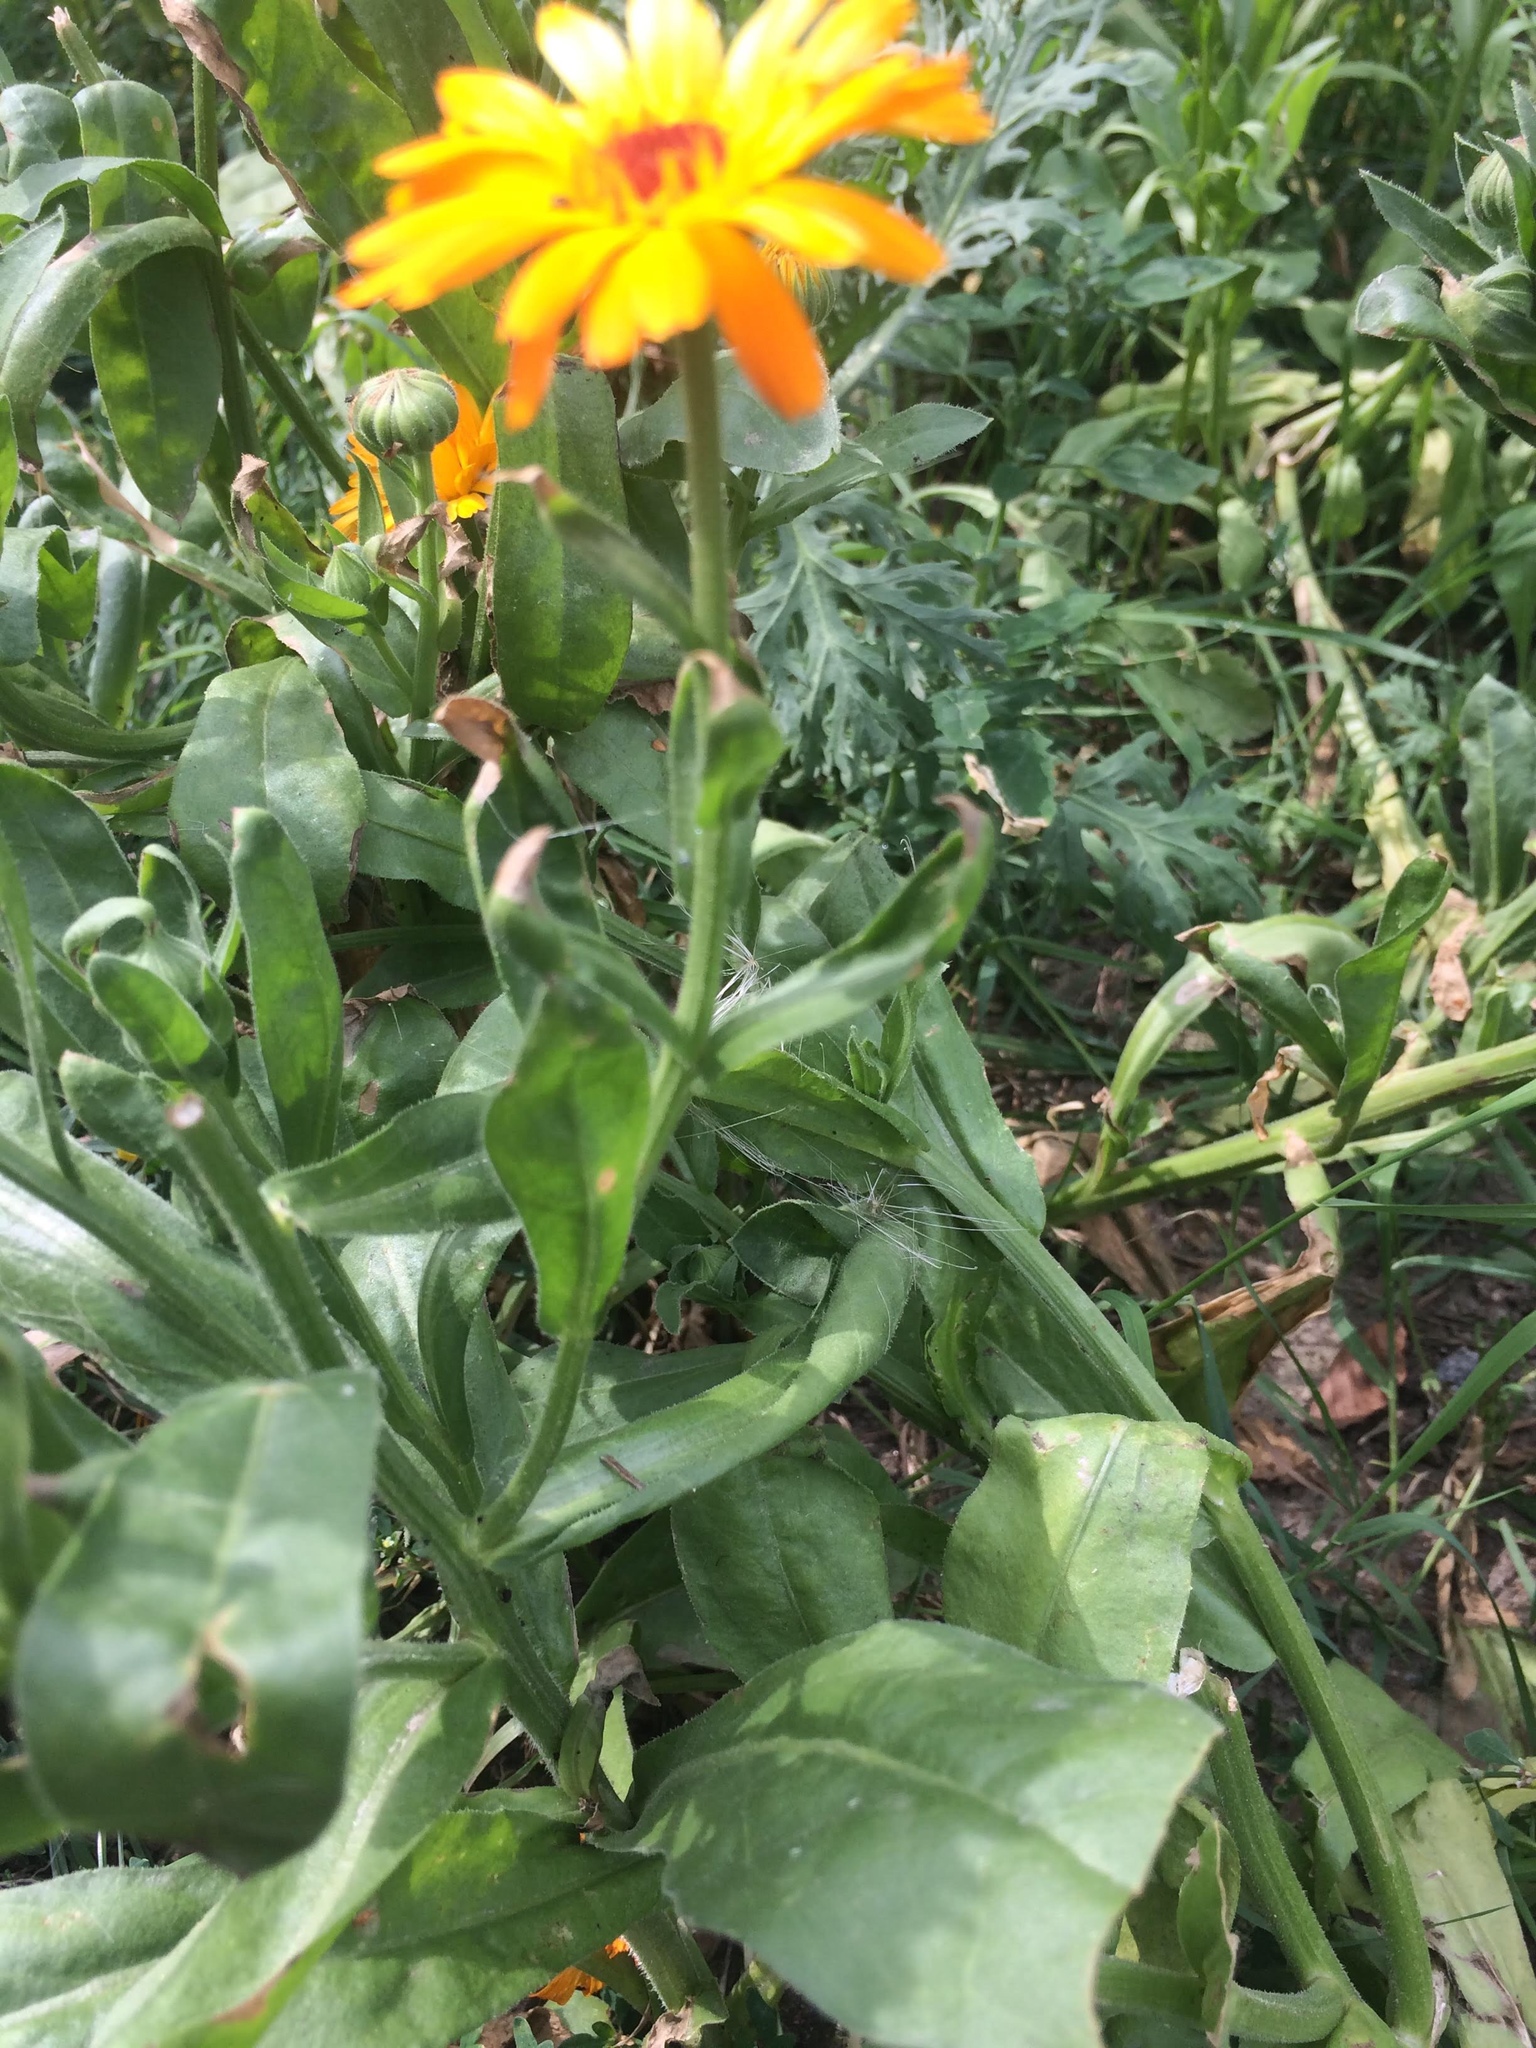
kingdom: Plantae
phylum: Tracheophyta
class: Magnoliopsida
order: Asterales
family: Asteraceae
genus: Calendula
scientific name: Calendula officinalis
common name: Pot marigold
